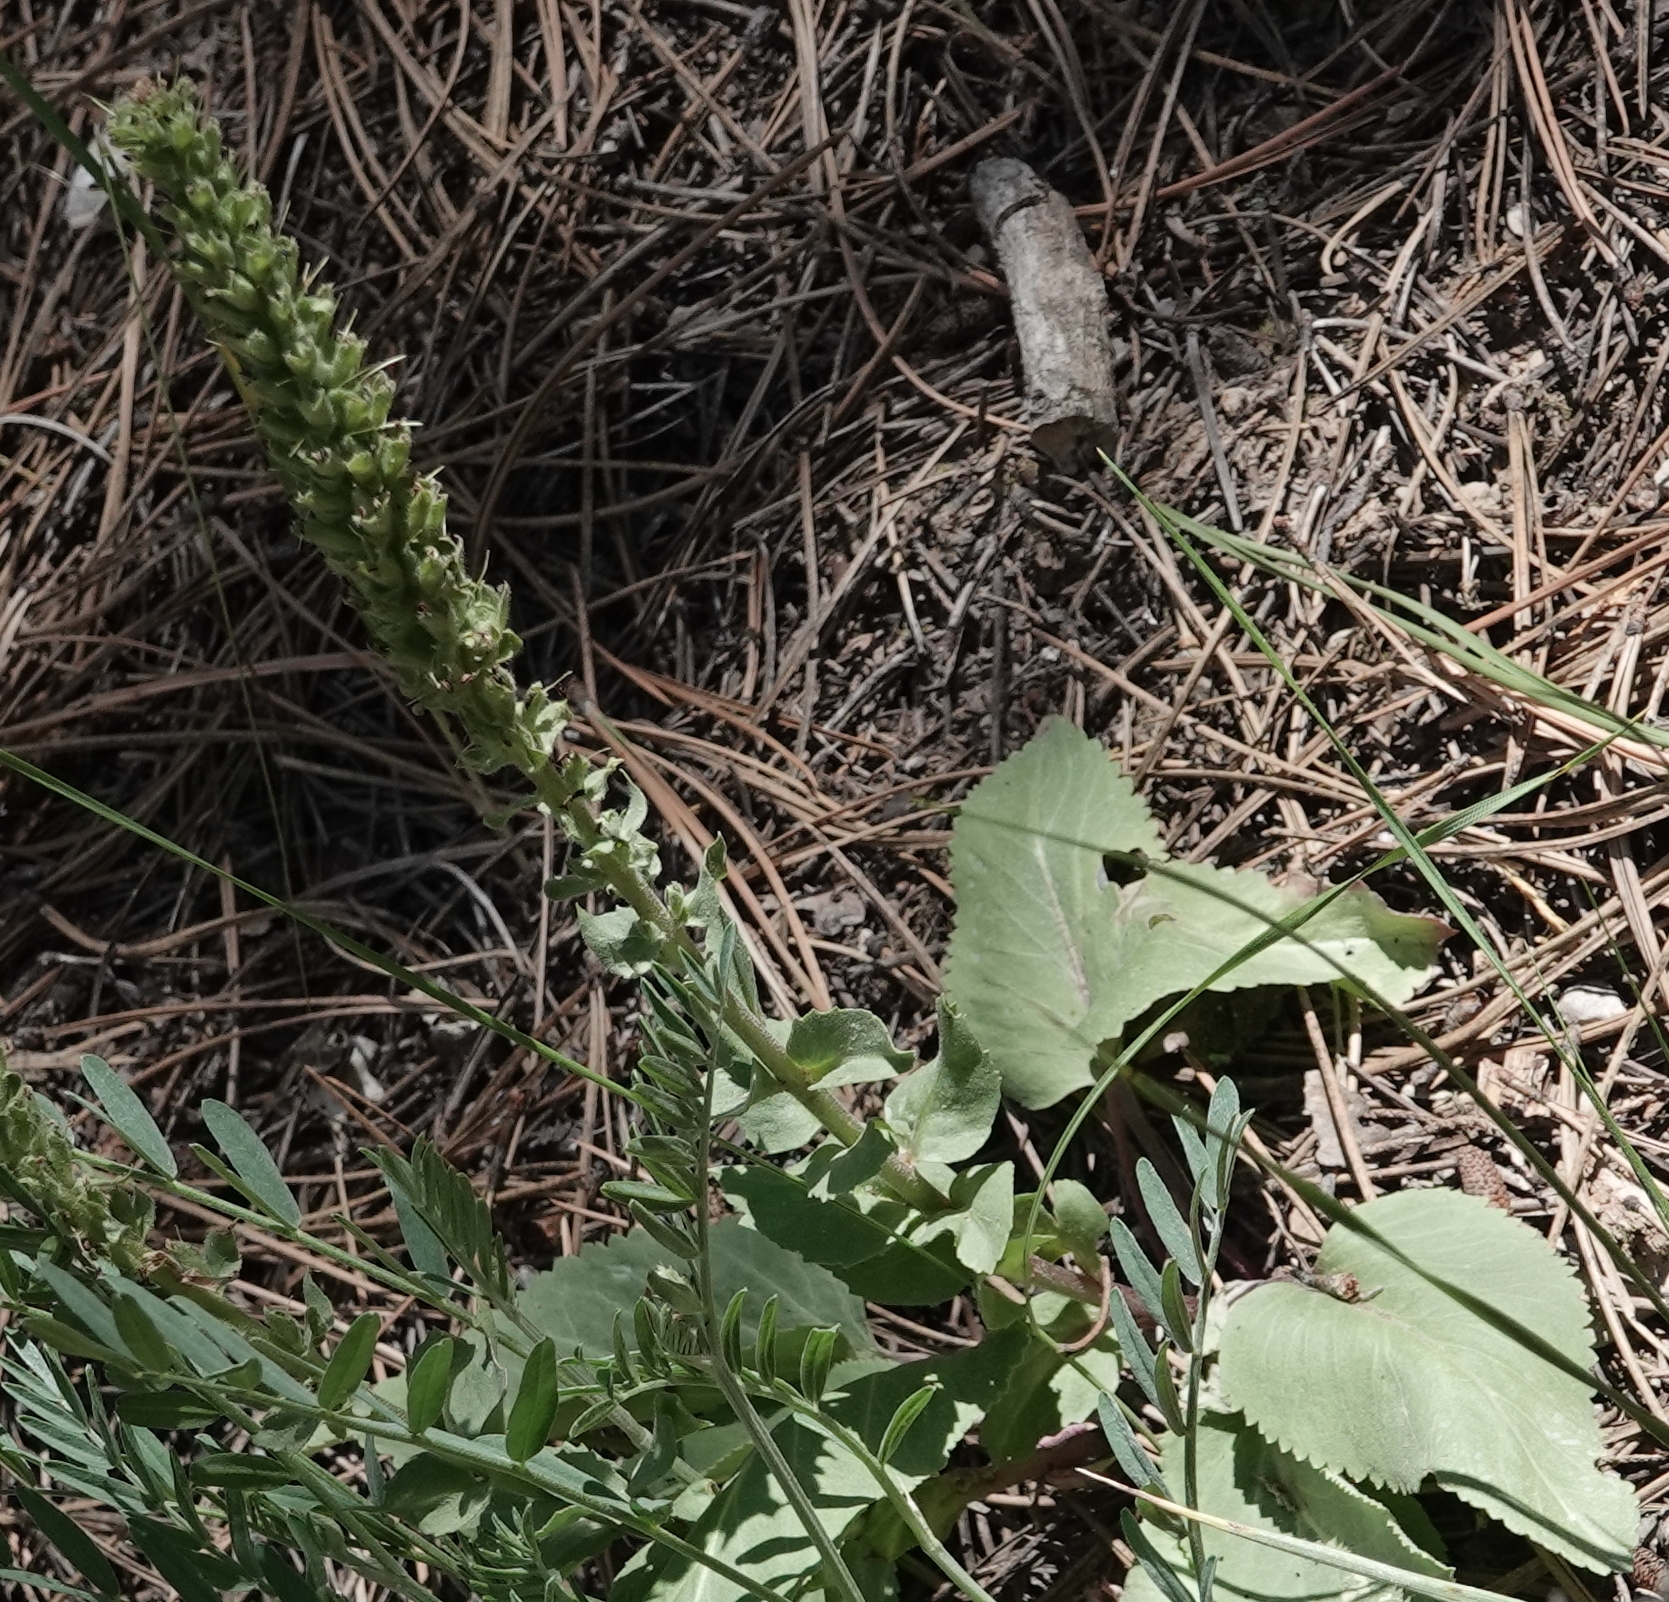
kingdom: Plantae
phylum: Tracheophyta
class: Magnoliopsida
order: Lamiales
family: Plantaginaceae
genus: Synthyris
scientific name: Synthyris wyomingensis
